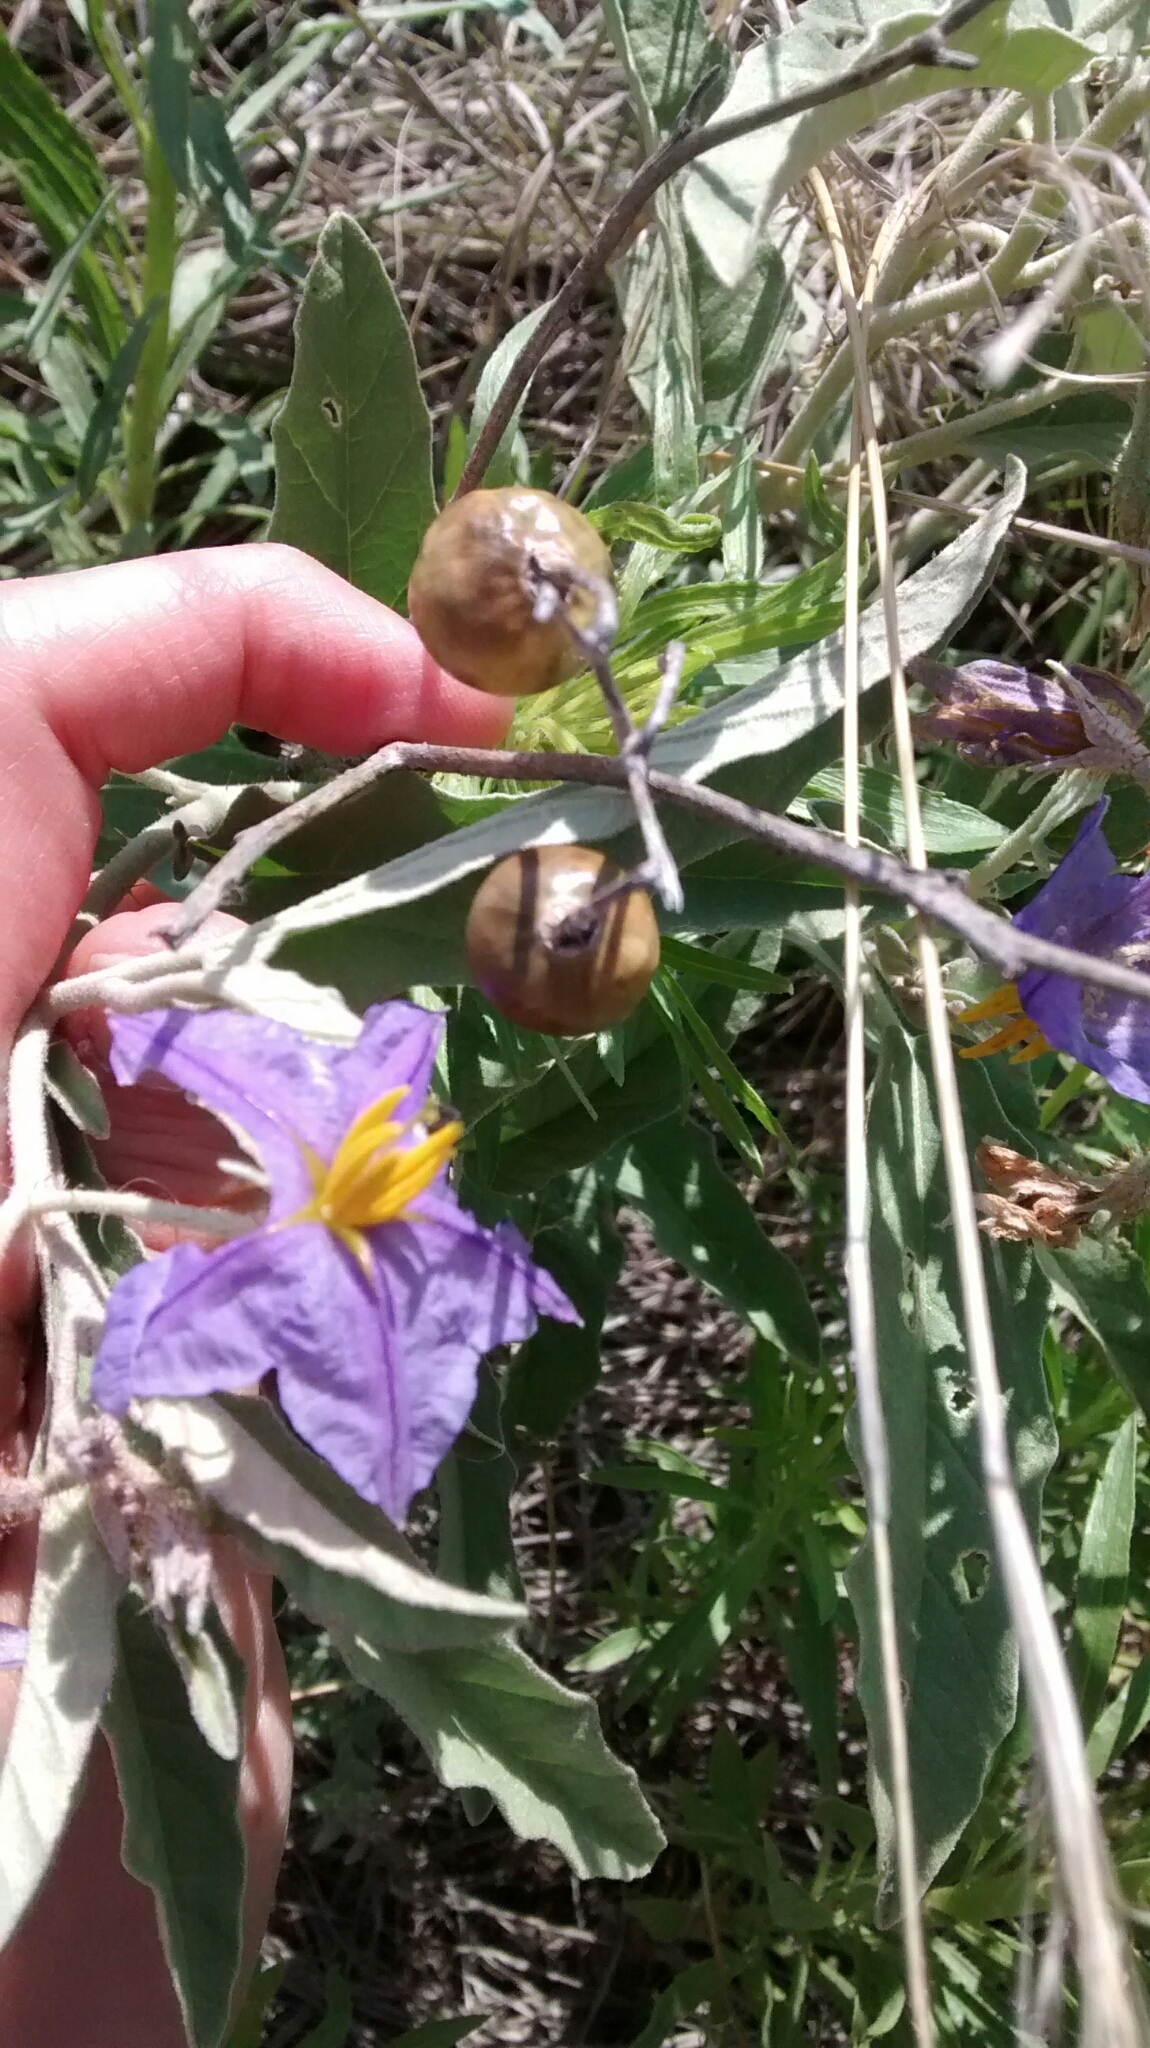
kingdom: Plantae
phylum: Tracheophyta
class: Magnoliopsida
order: Solanales
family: Solanaceae
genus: Solanum
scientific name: Solanum elaeagnifolium
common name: Silverleaf nightshade
